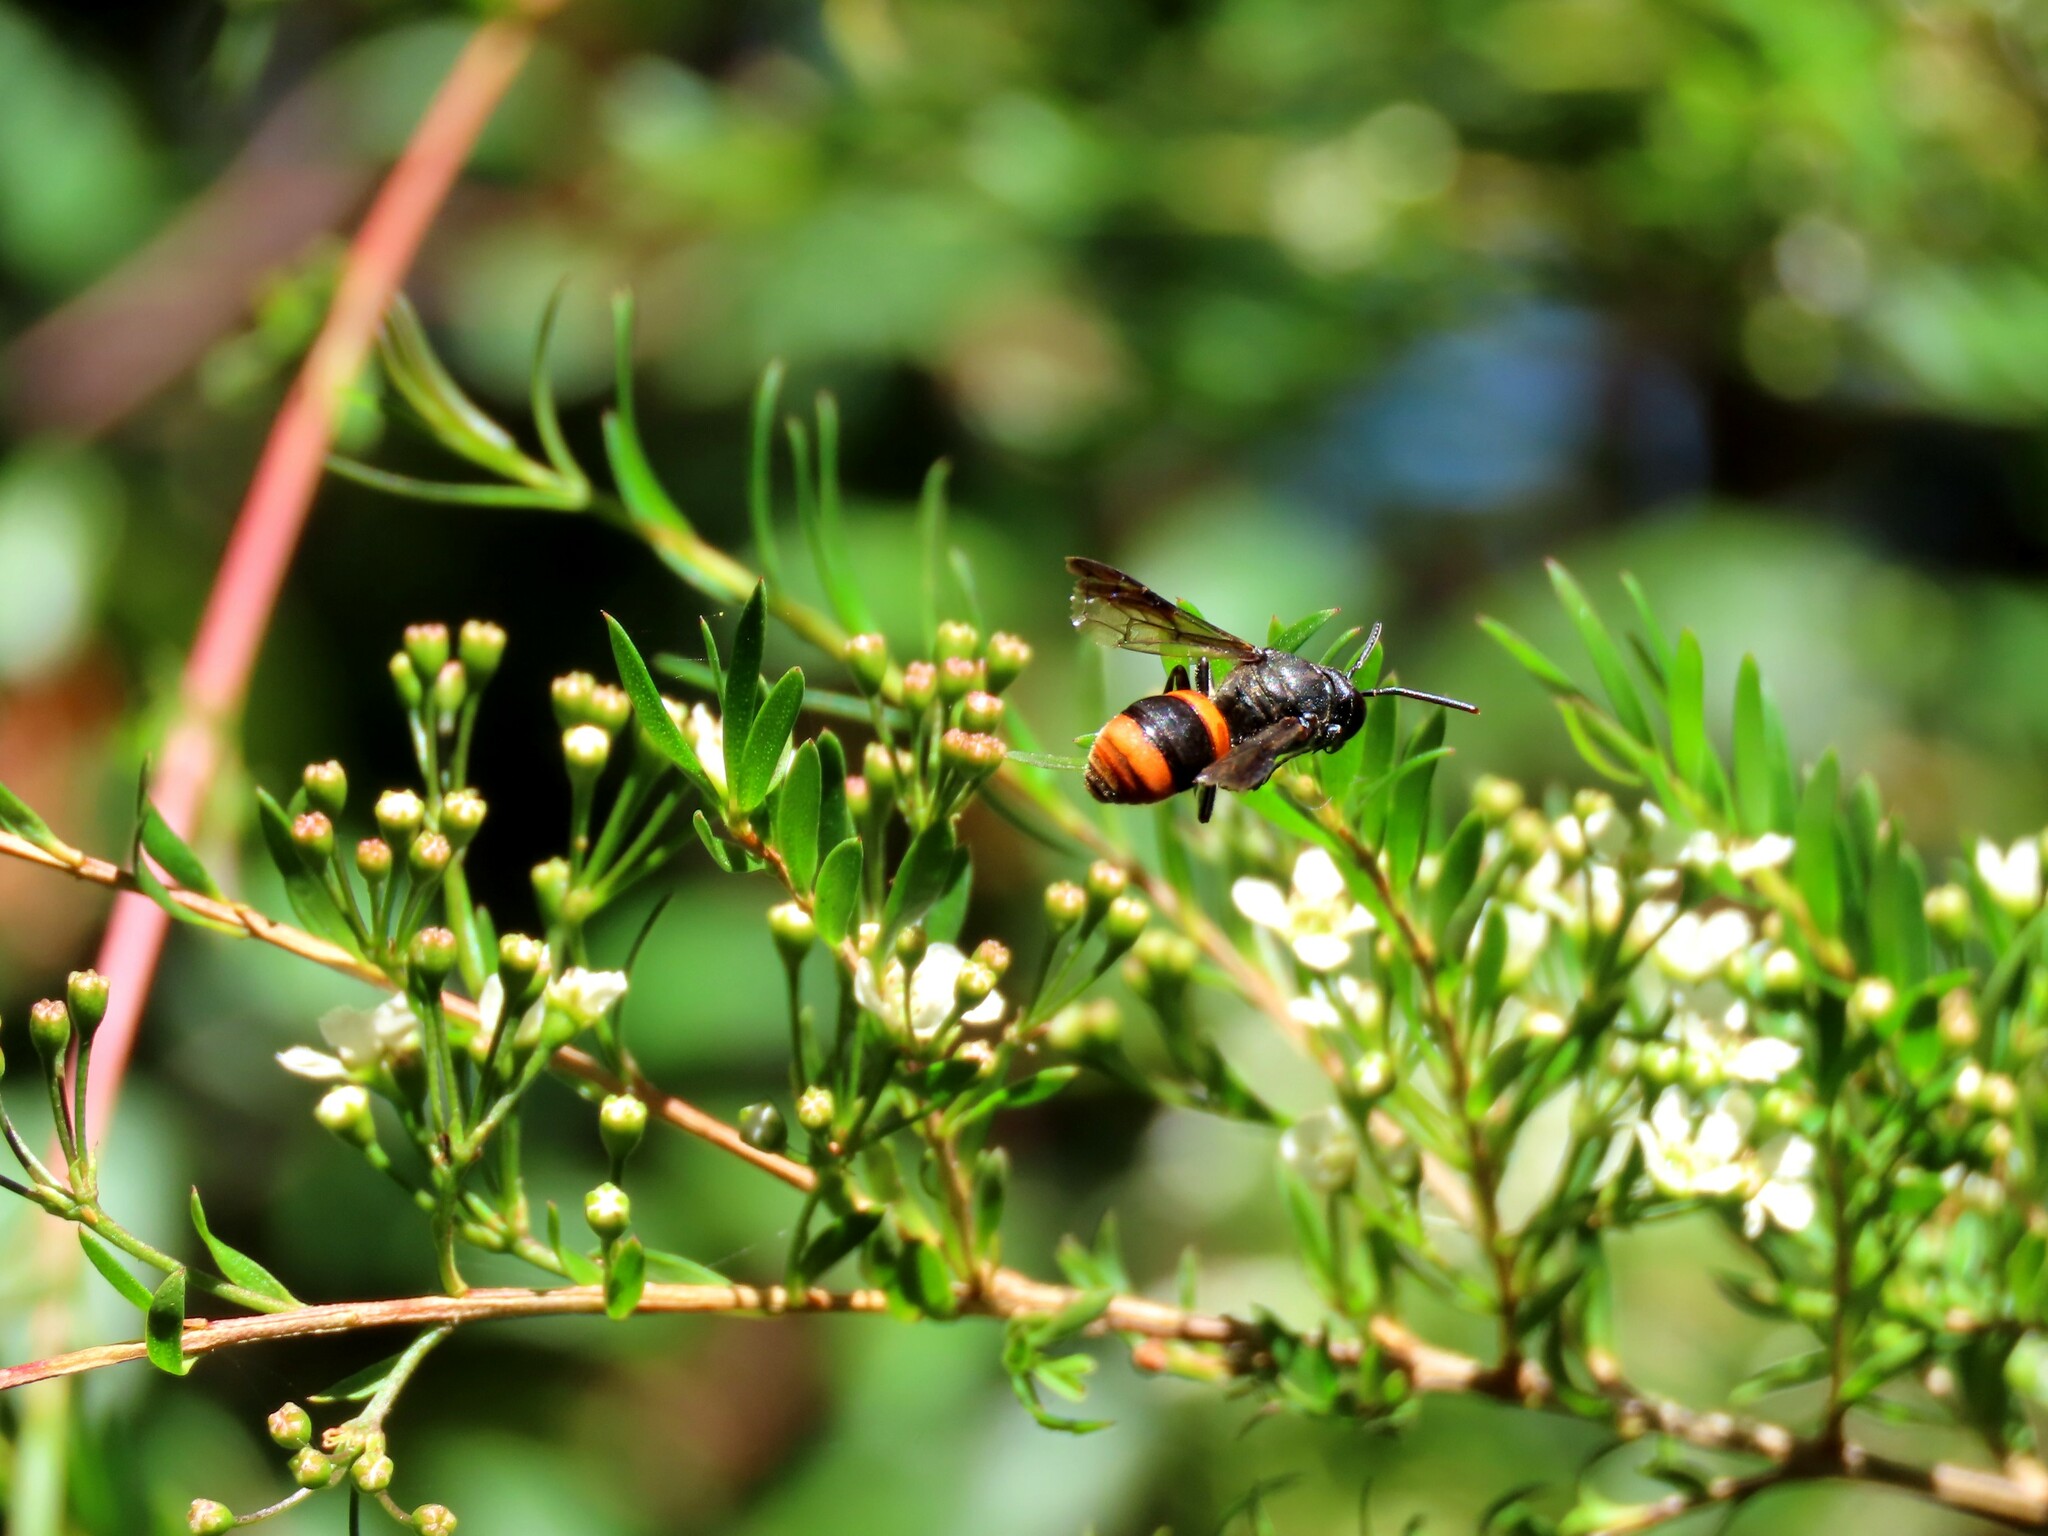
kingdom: Animalia
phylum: Arthropoda
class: Insecta
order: Hymenoptera
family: Colletidae
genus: Hyleoides
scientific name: Hyleoides concinna
